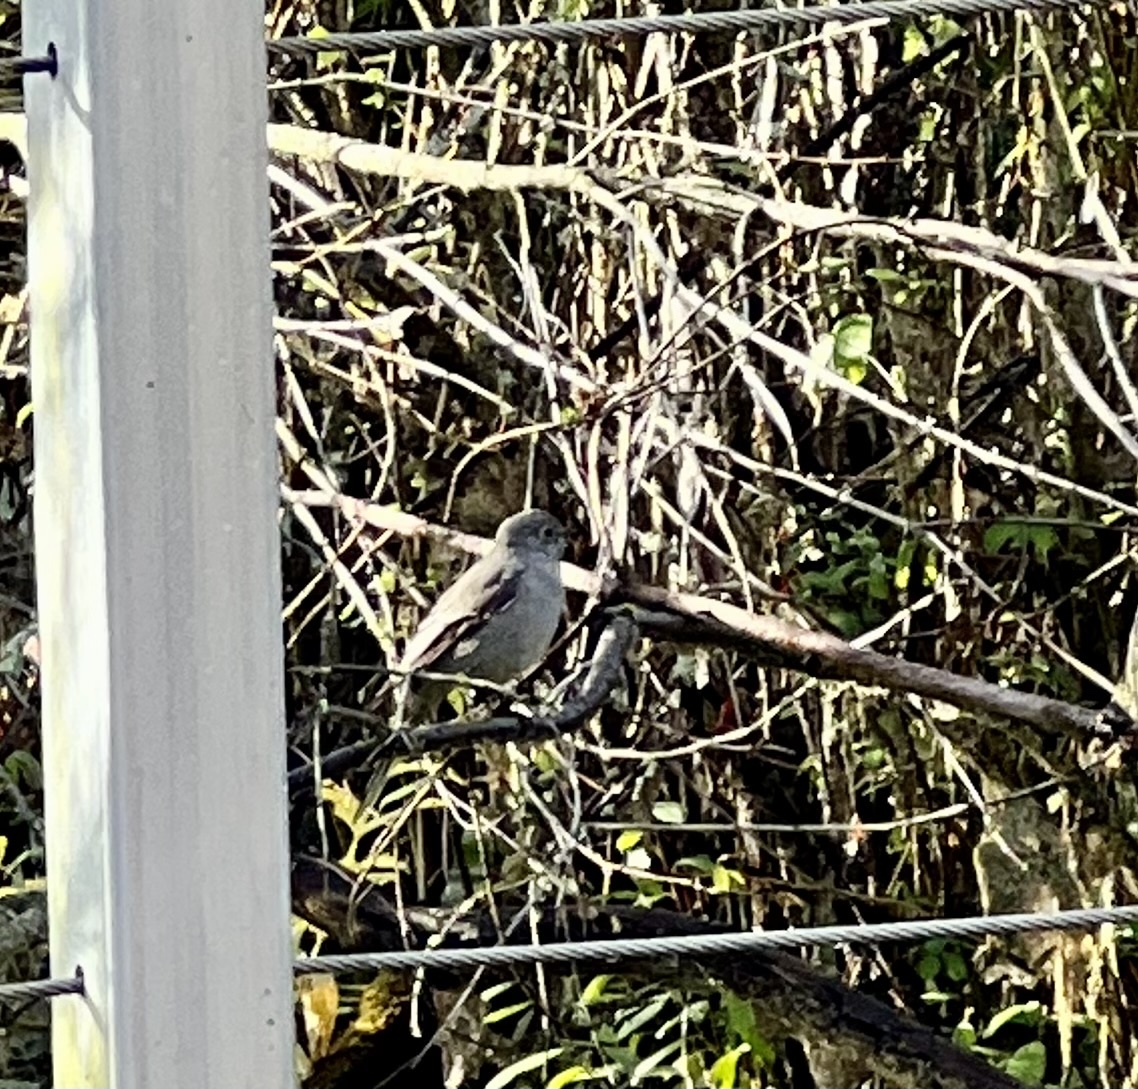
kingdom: Animalia
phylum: Chordata
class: Aves
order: Passeriformes
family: Turdidae
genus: Myadestes
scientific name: Myadestes townsendi
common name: Townsend's solitaire
